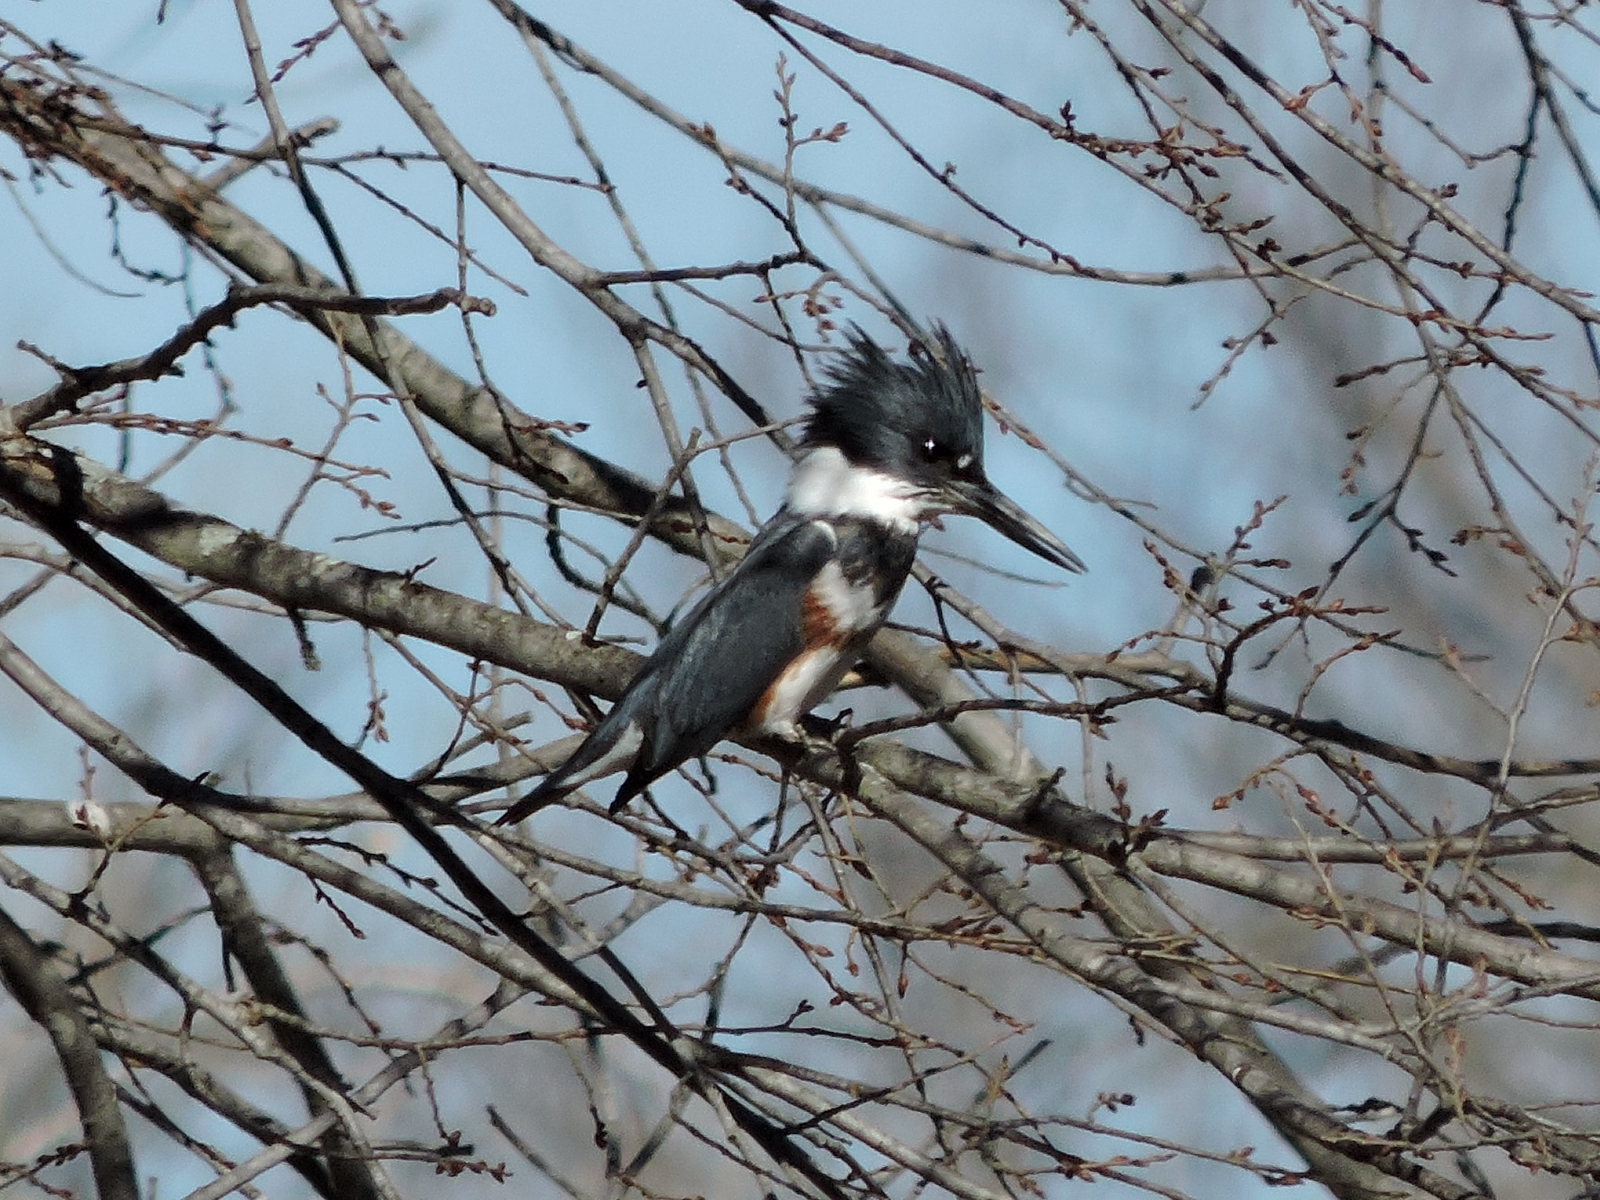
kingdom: Animalia
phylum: Chordata
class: Aves
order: Coraciiformes
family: Alcedinidae
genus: Megaceryle
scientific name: Megaceryle alcyon
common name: Belted kingfisher
